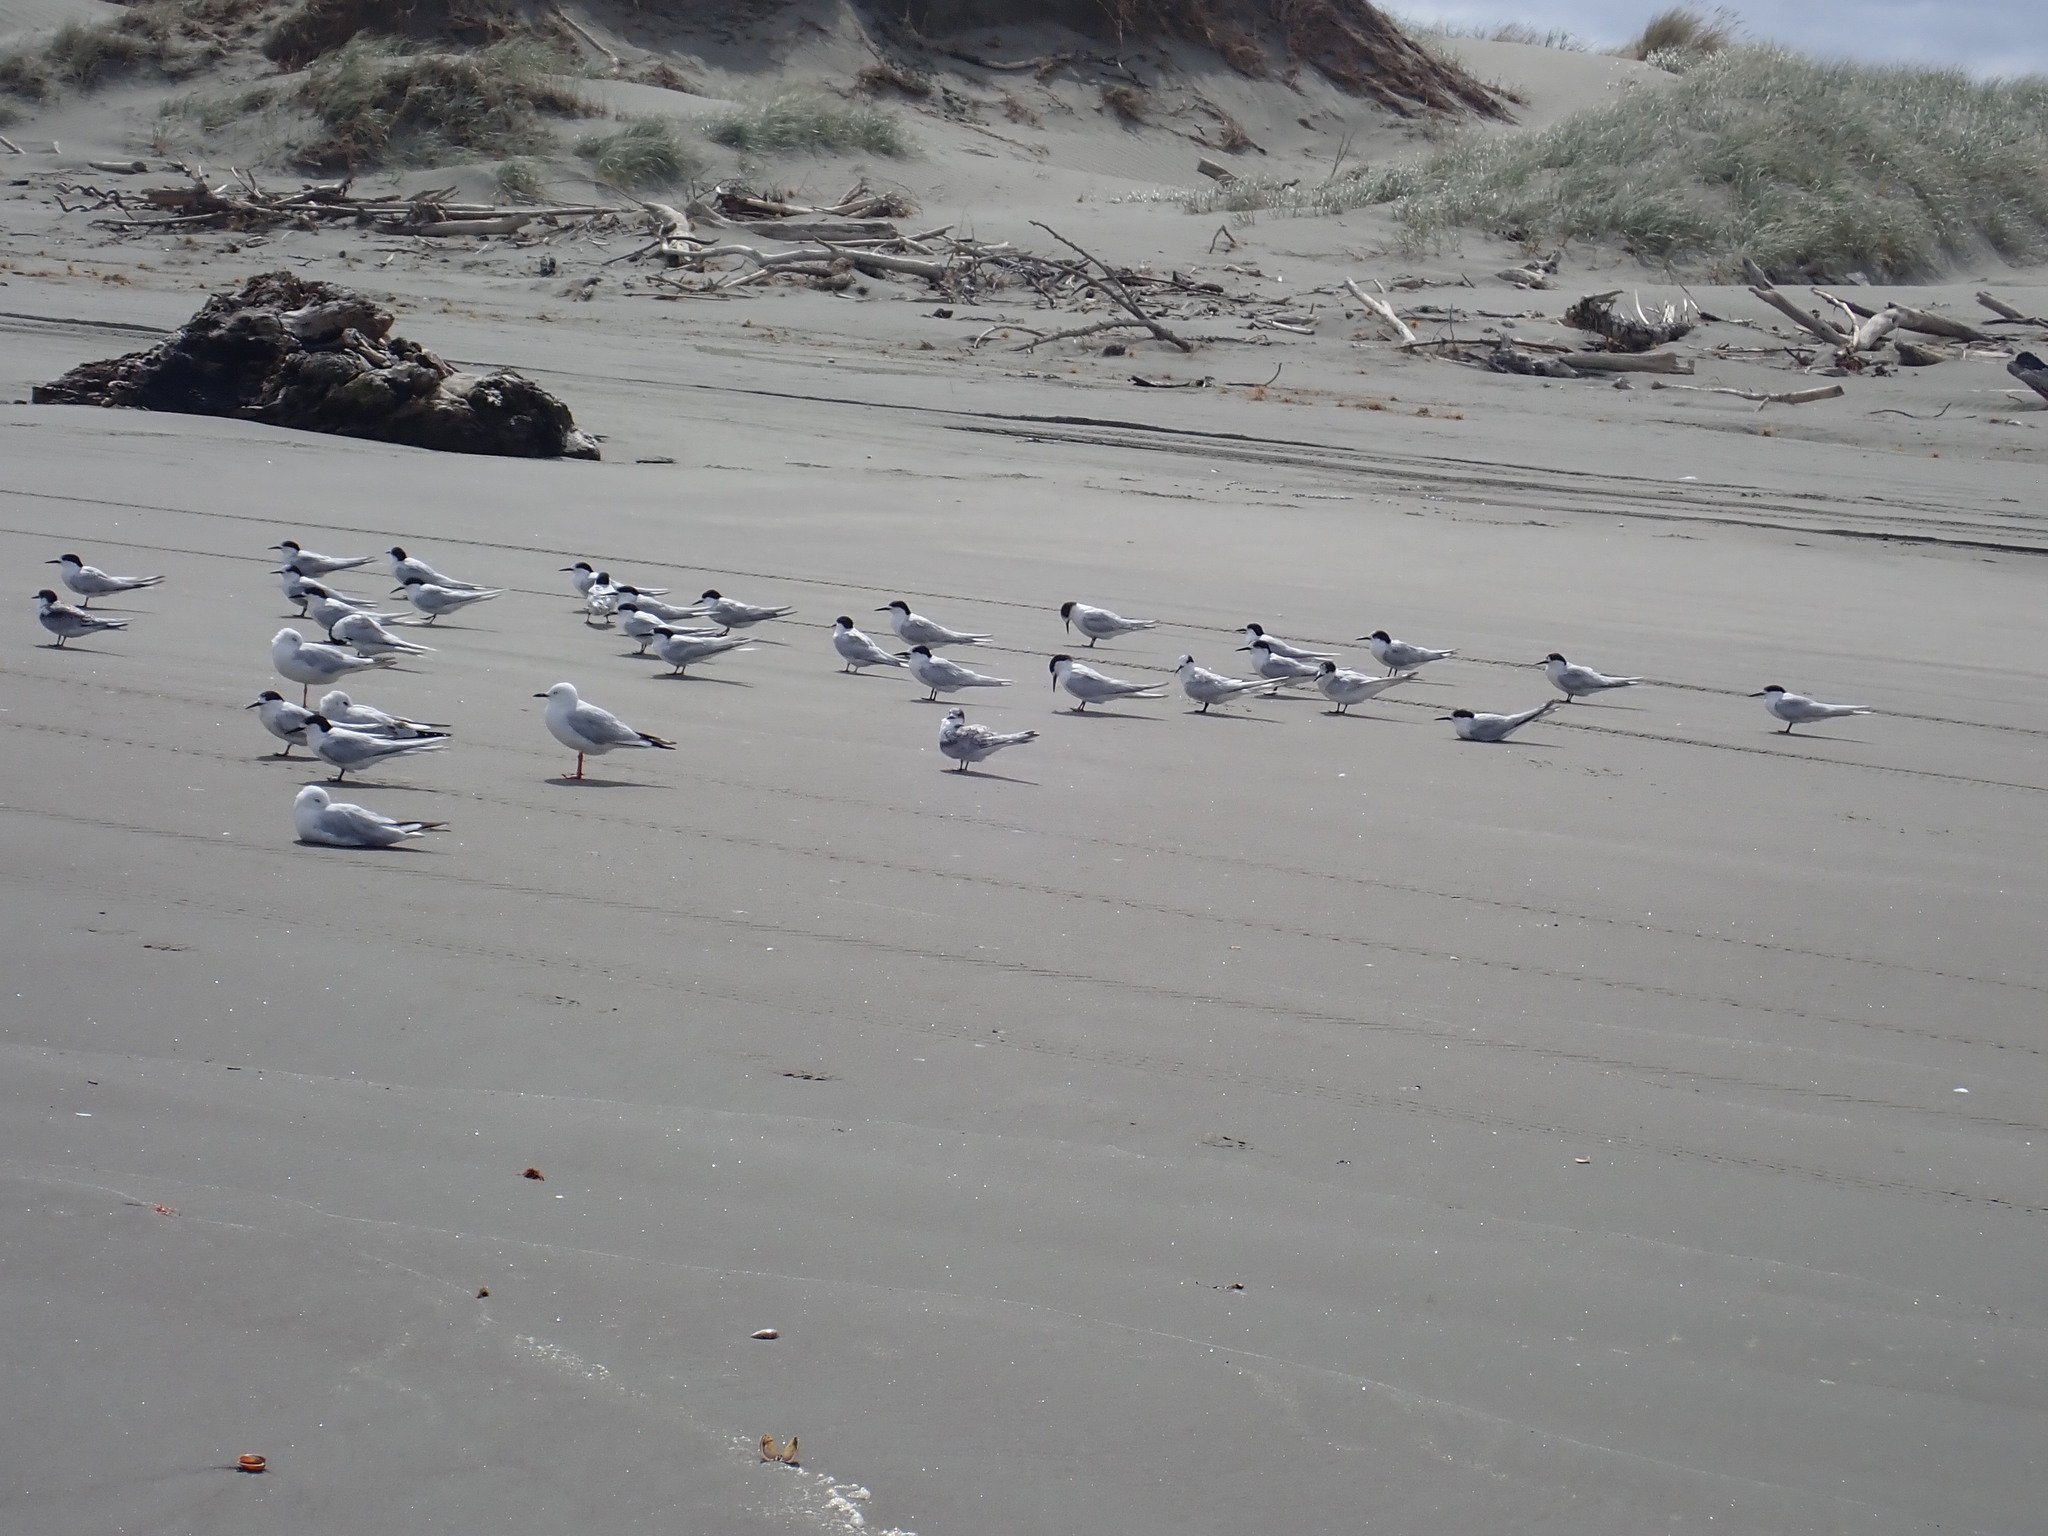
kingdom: Animalia
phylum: Chordata
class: Aves
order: Charadriiformes
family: Laridae
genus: Sterna
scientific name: Sterna striata
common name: White-fronted tern
